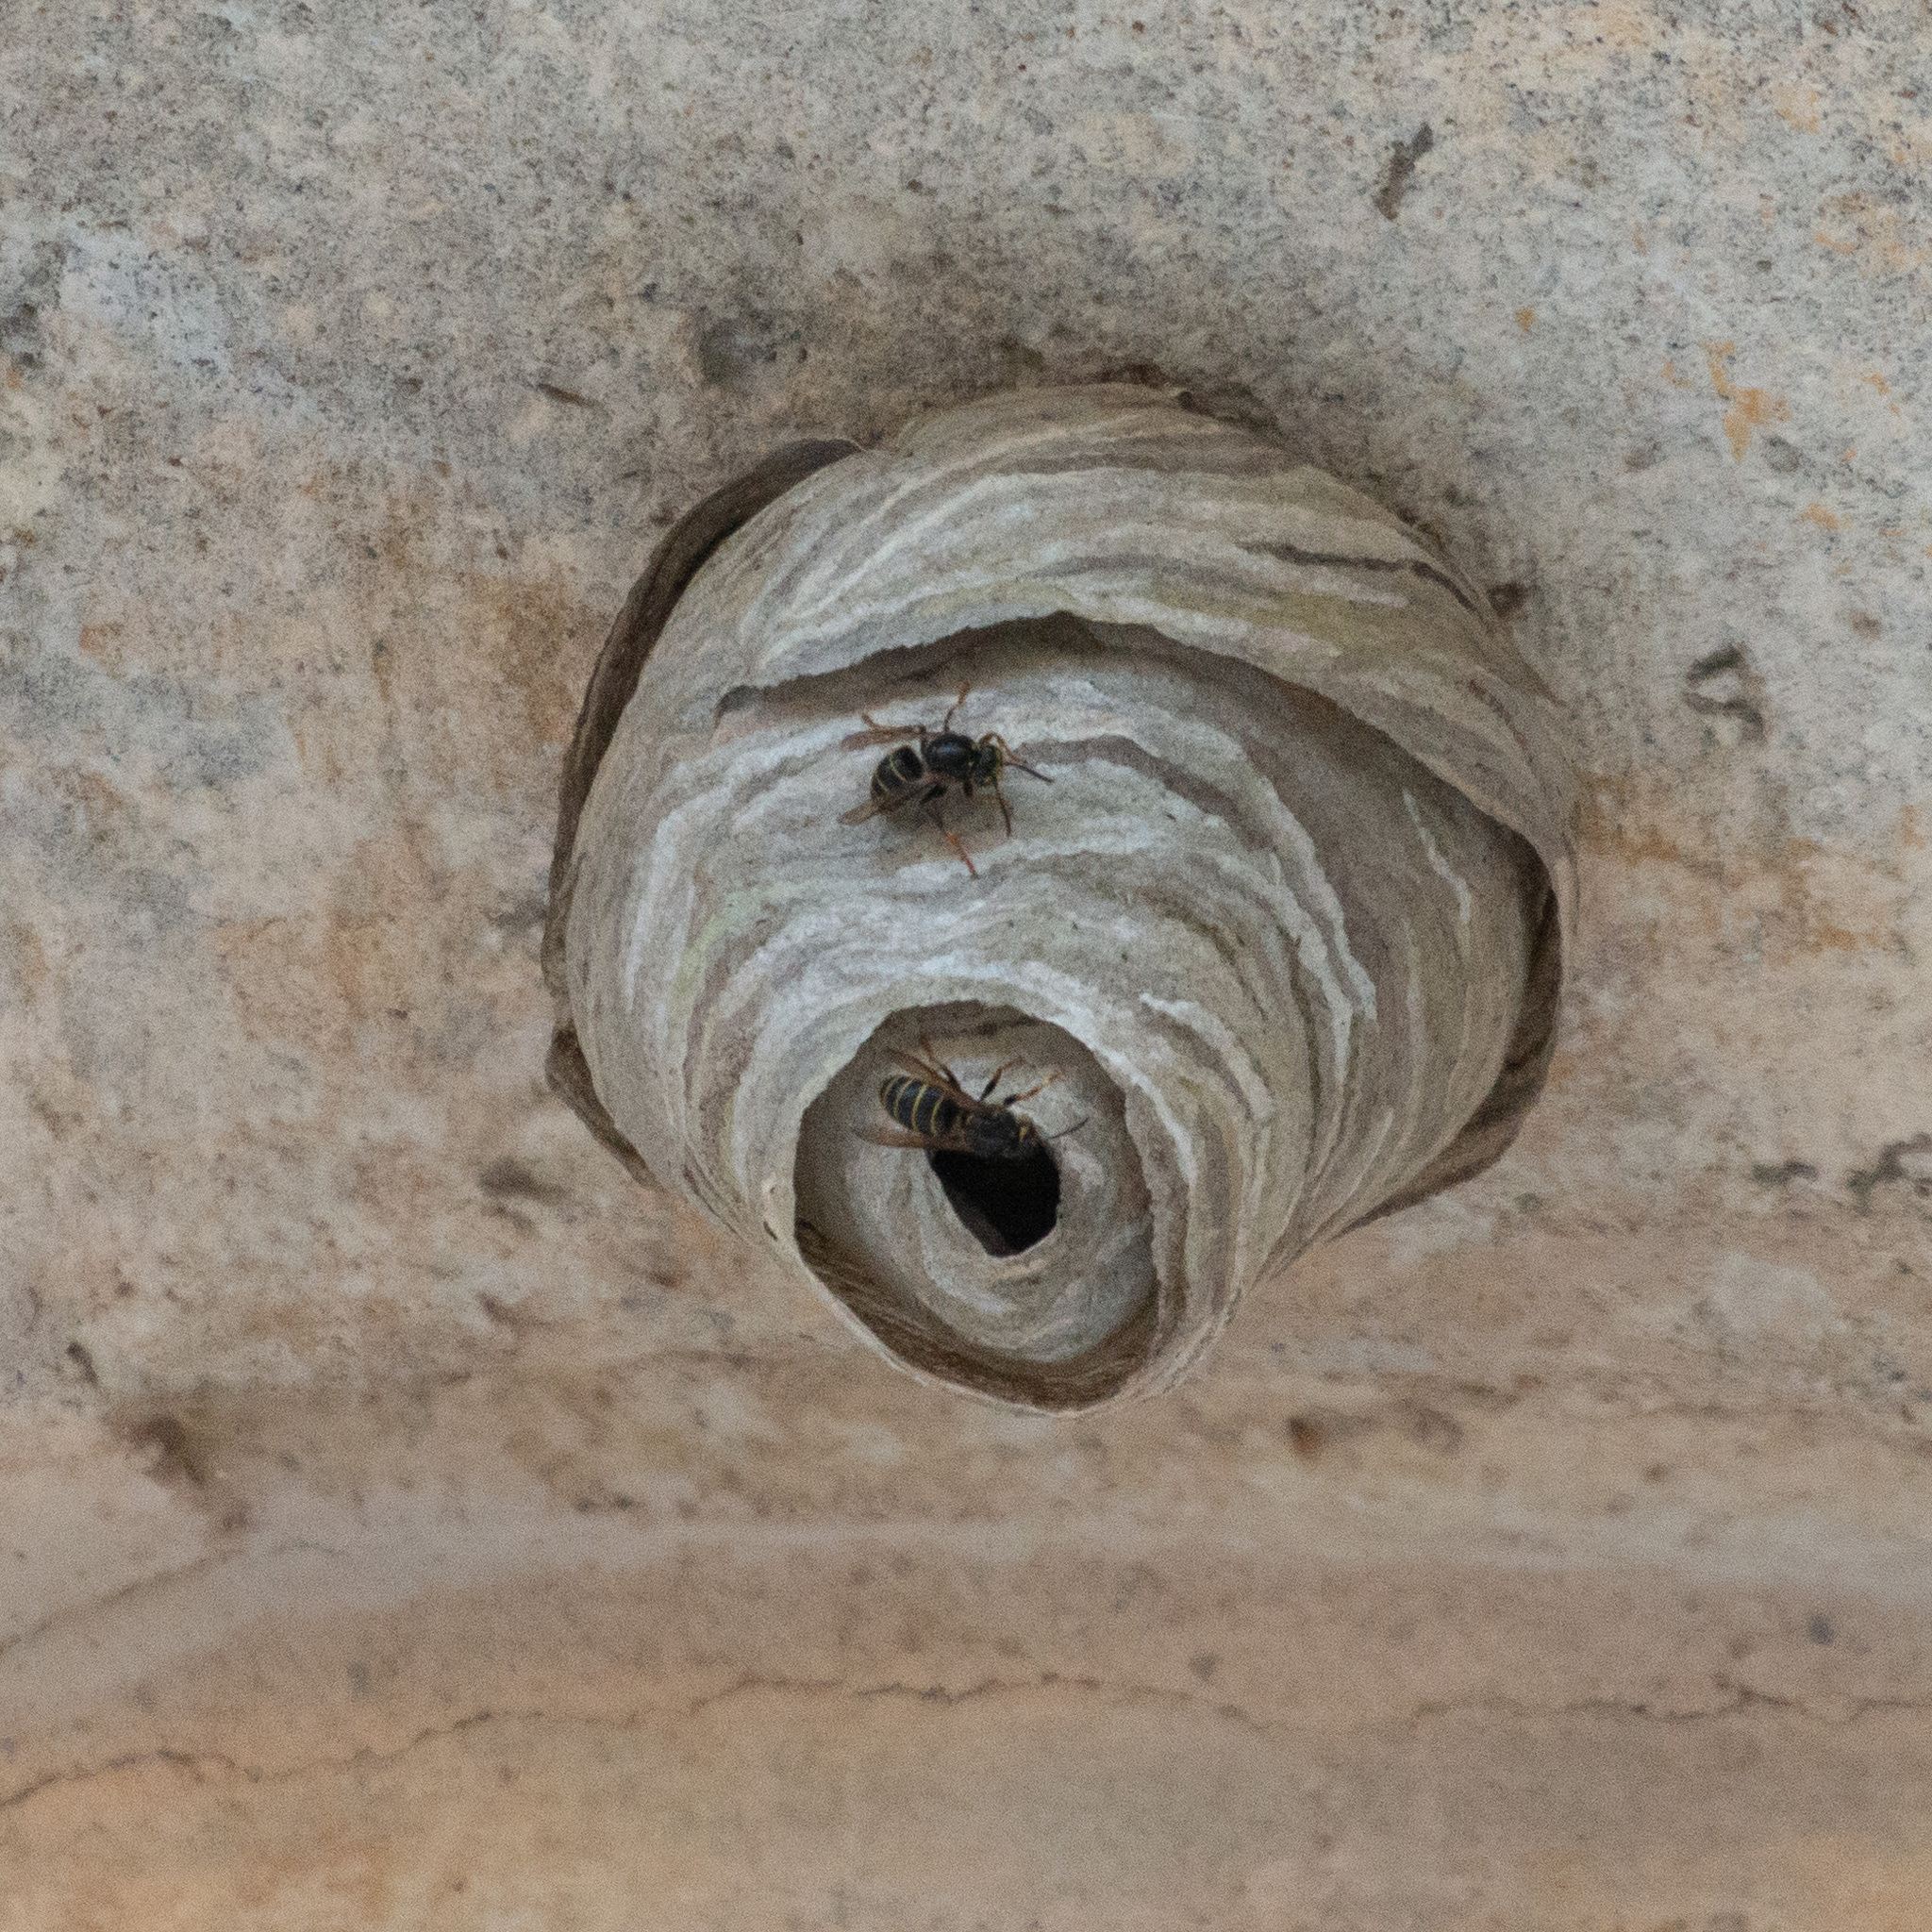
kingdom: Animalia
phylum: Arthropoda
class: Insecta
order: Hymenoptera
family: Vespidae
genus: Dolichovespula
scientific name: Dolichovespula media
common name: Median wasp
